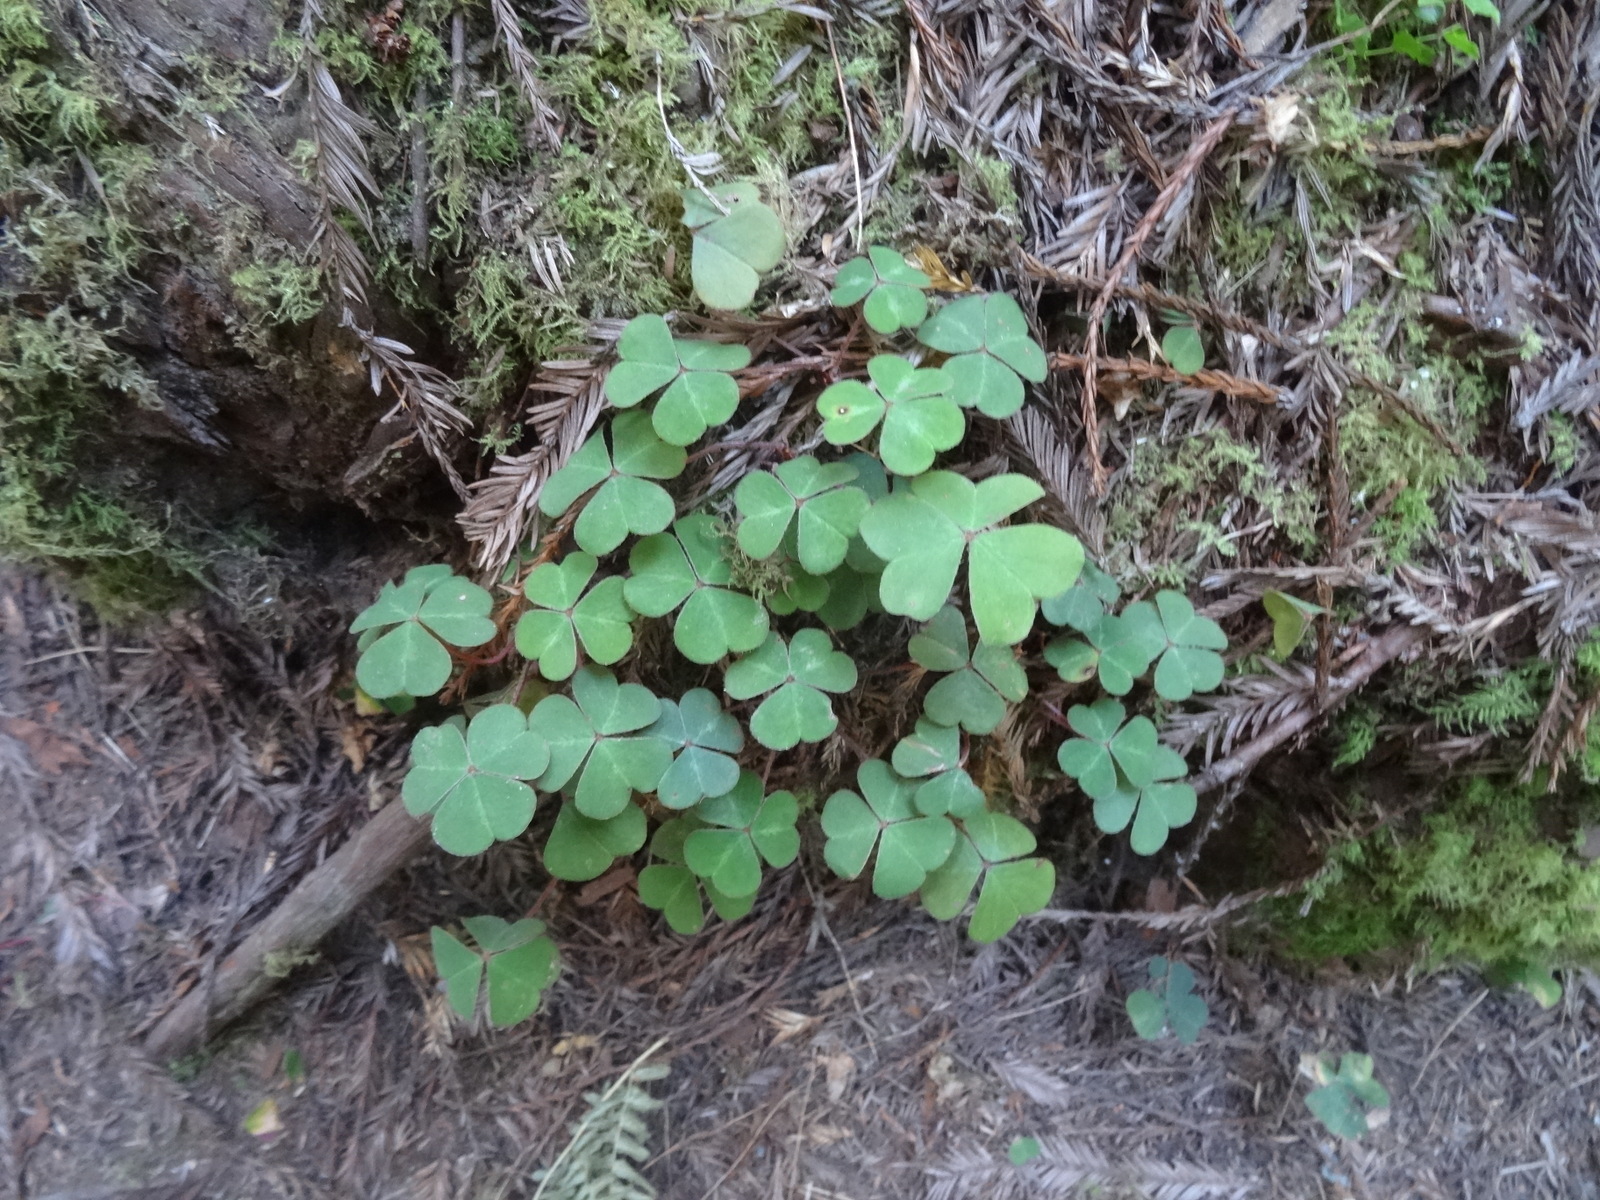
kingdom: Plantae
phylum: Tracheophyta
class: Magnoliopsida
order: Oxalidales
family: Oxalidaceae
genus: Oxalis
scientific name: Oxalis oregana
